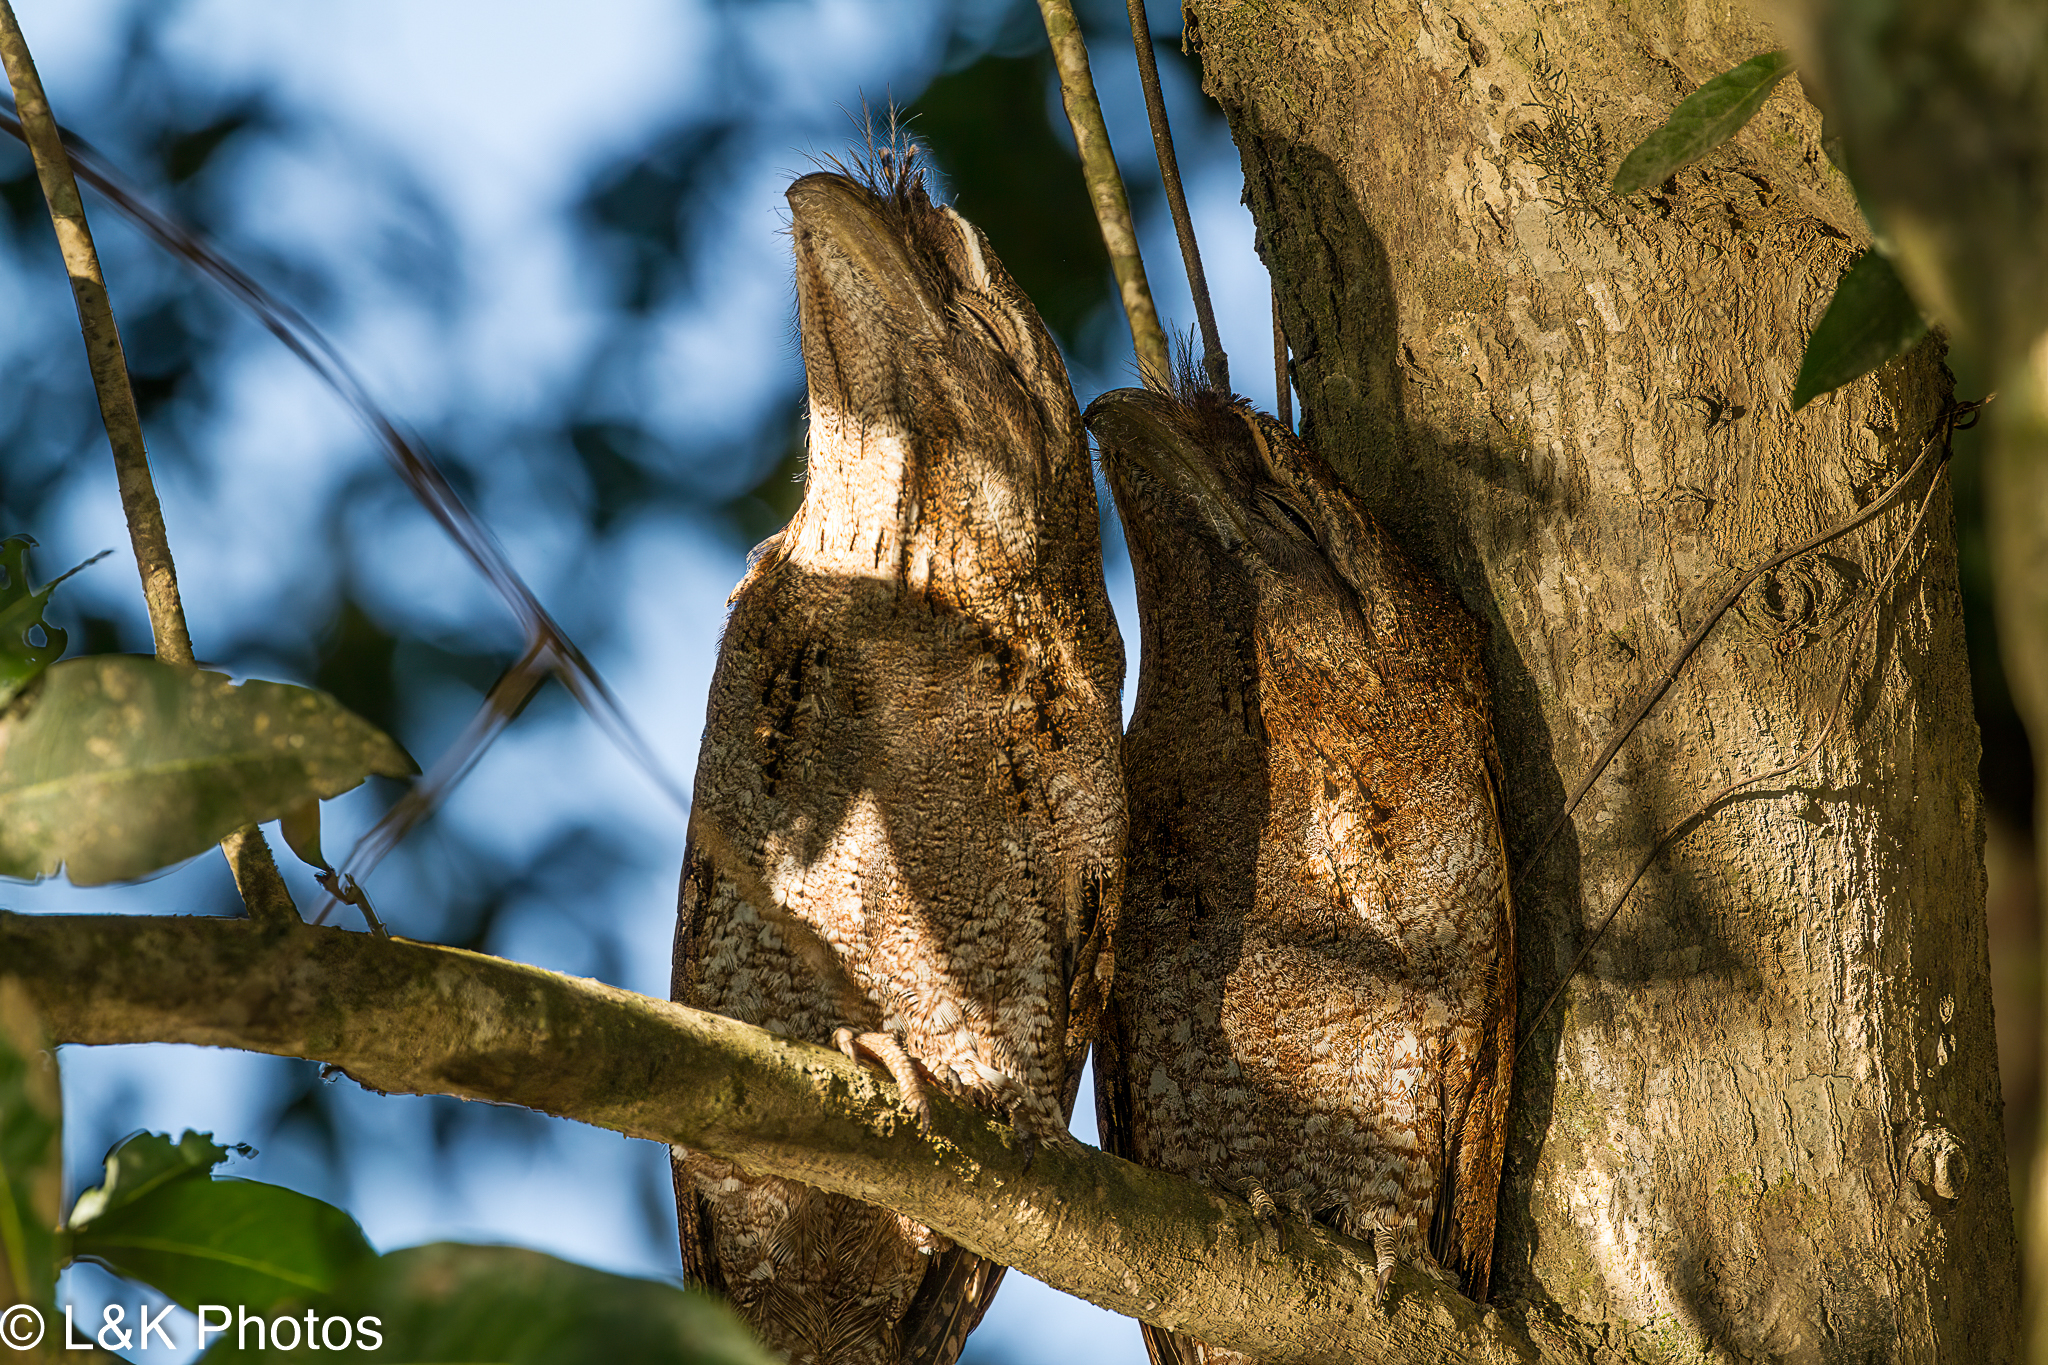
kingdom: Animalia
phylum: Chordata
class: Aves
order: Caprimulgiformes
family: Podargidae
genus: Podargus
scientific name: Podargus papuensis
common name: Papuan frogmouth
